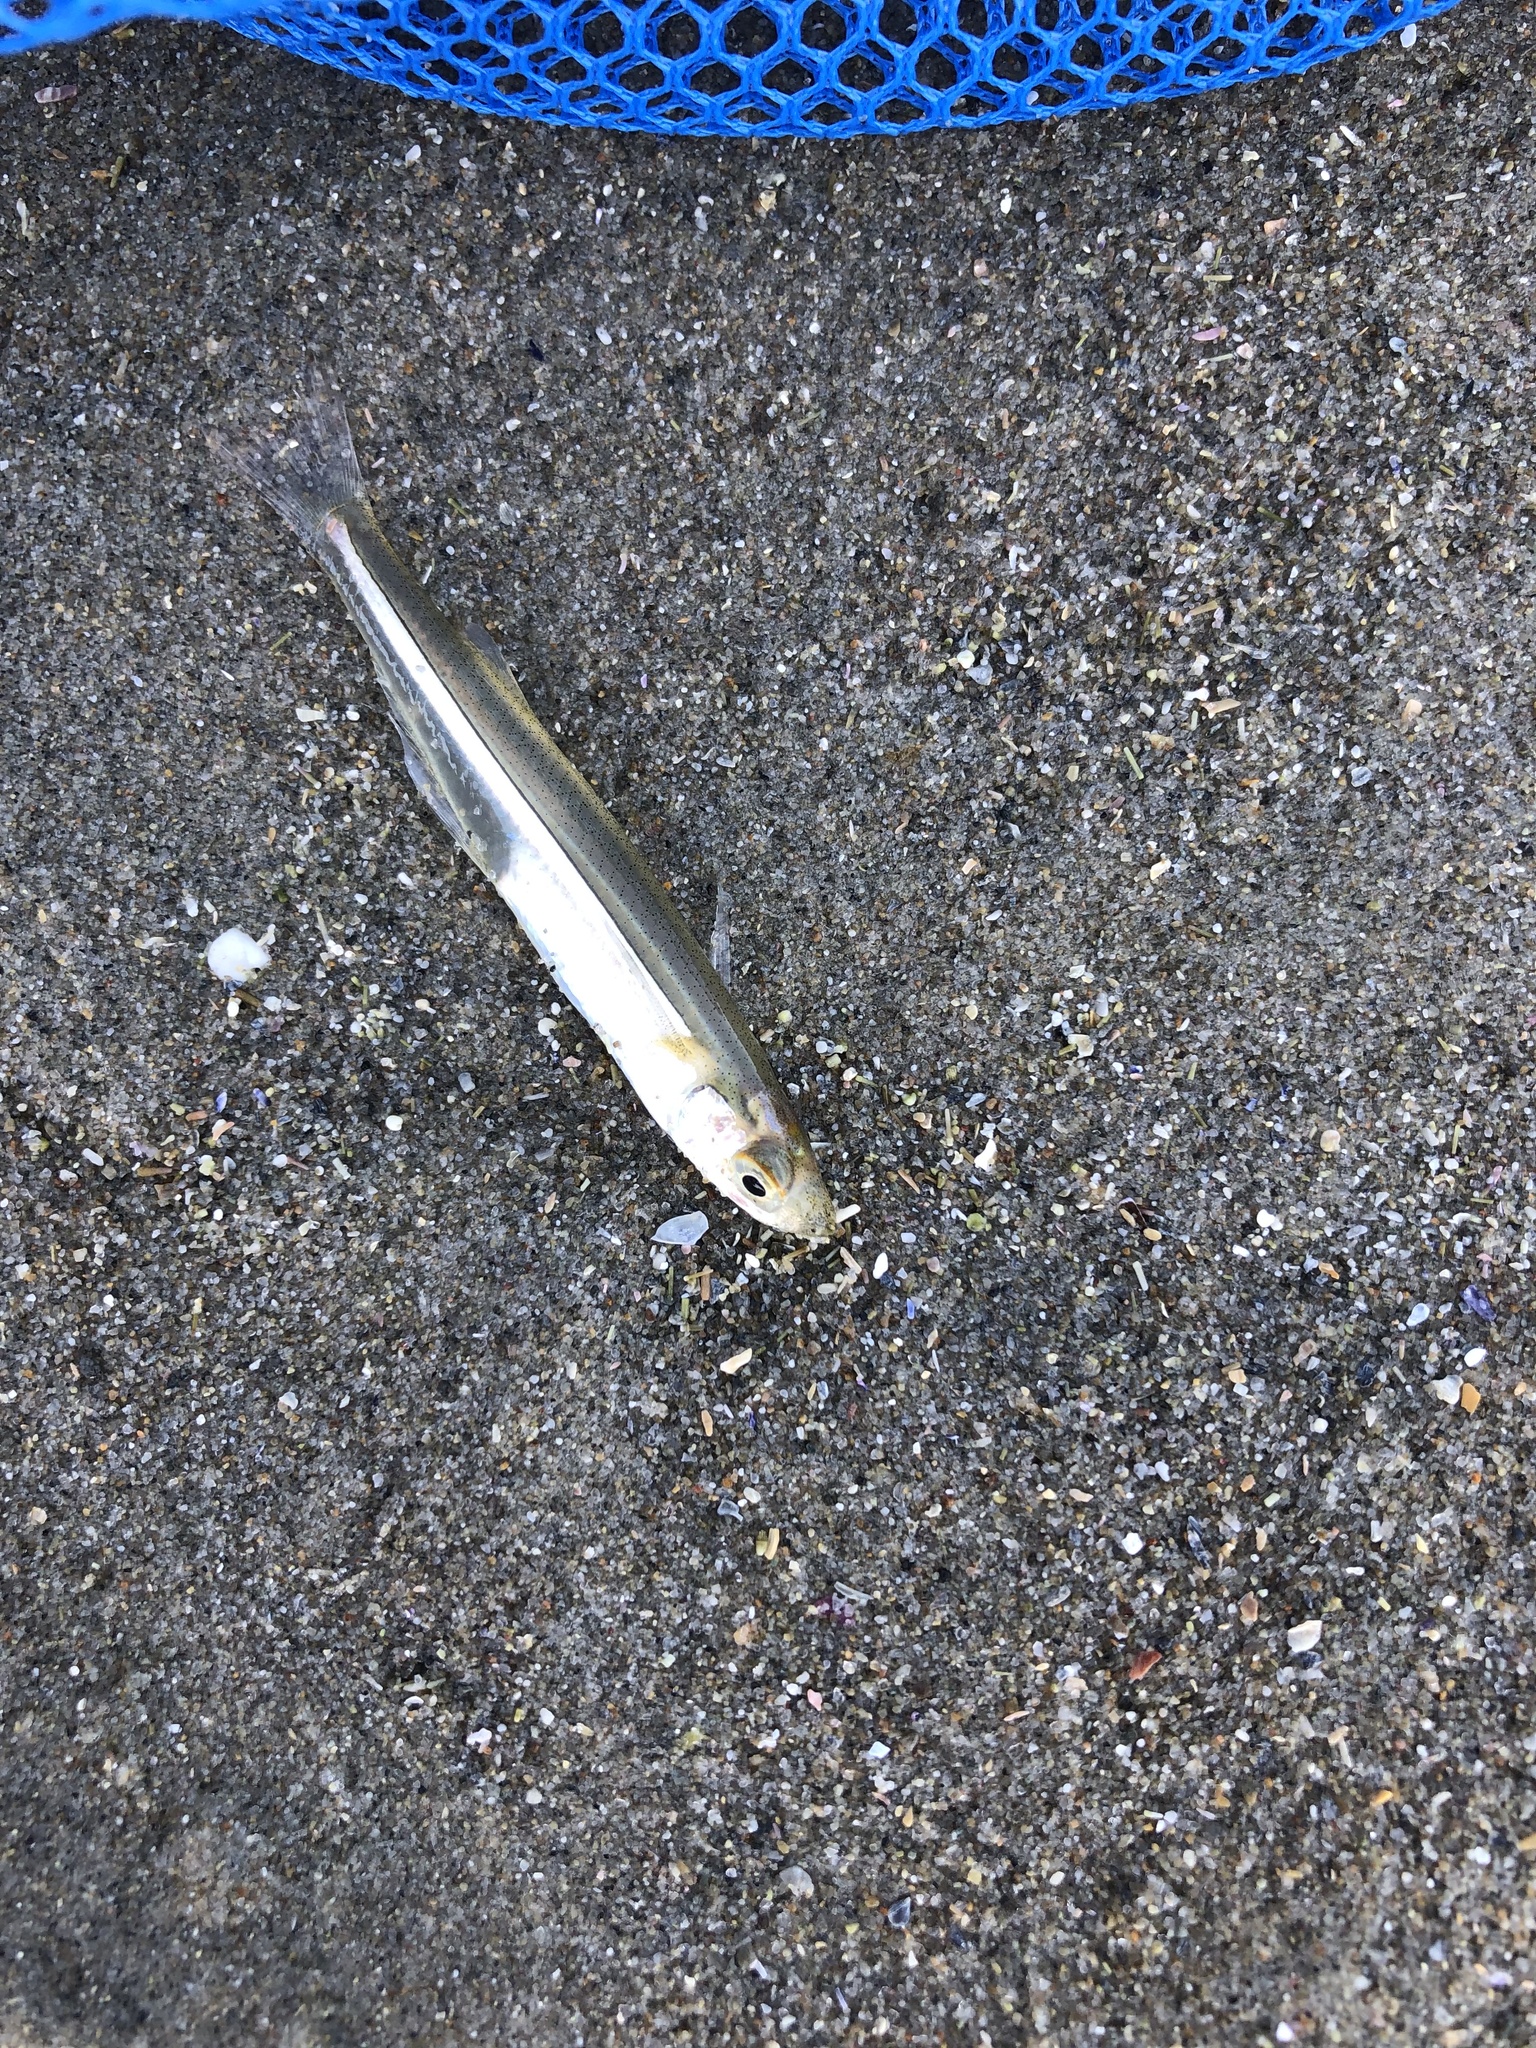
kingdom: Animalia
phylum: Chordata
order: Atheriniformes
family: Atherinopsidae
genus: Menidia
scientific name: Menidia menidia
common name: Atlantic silverside
